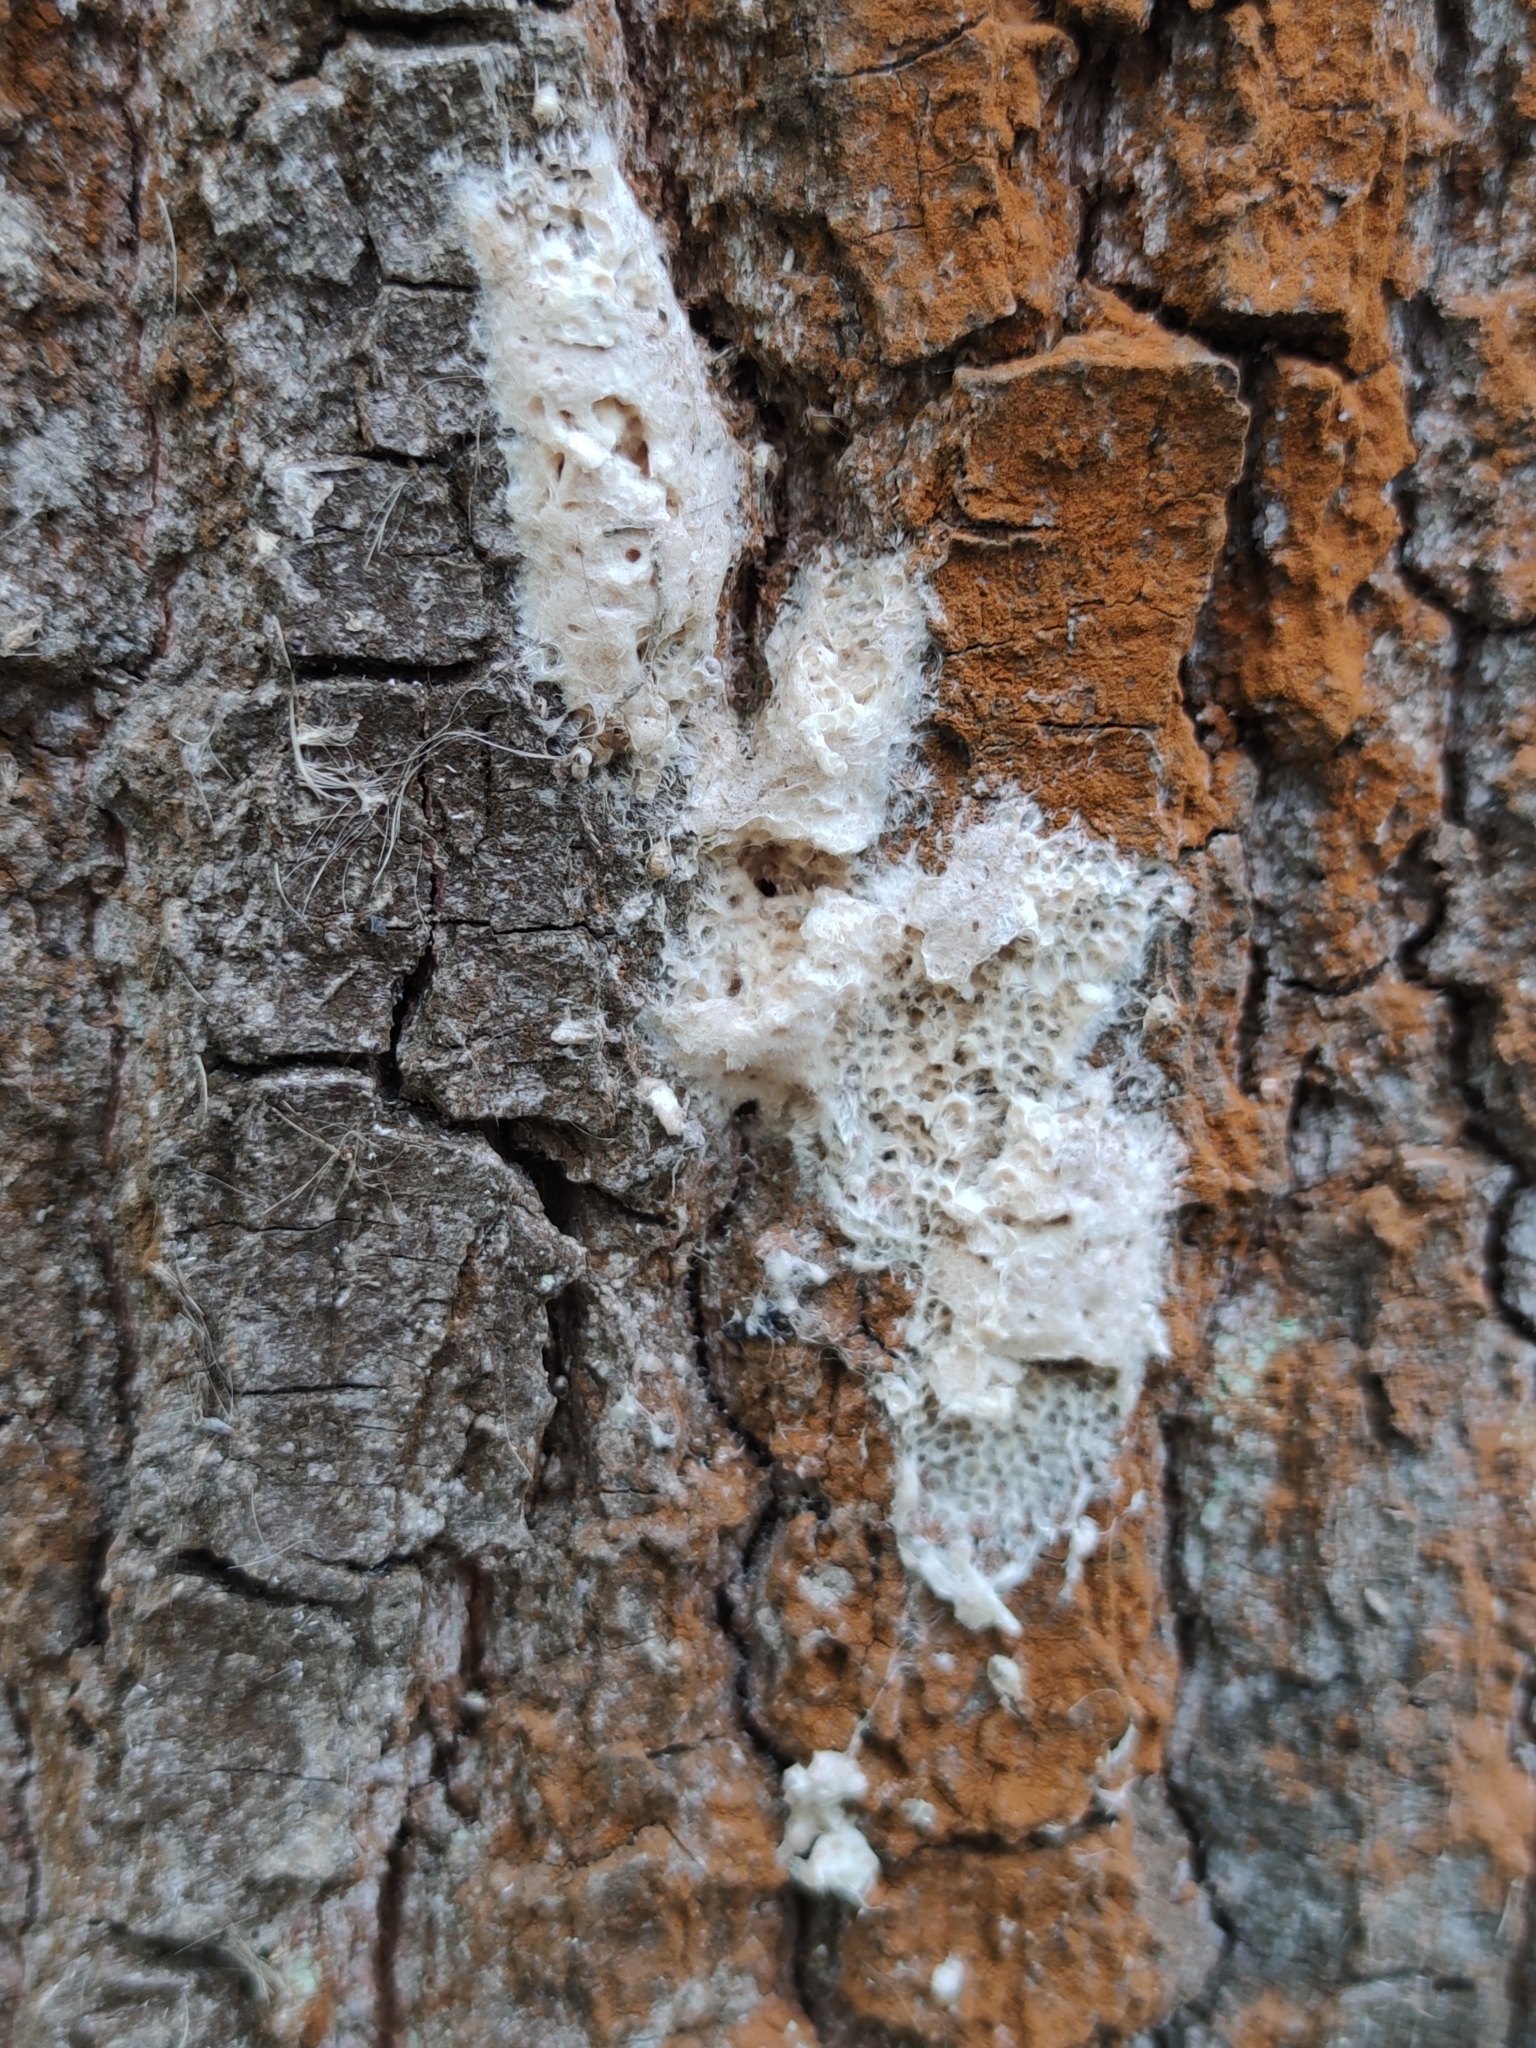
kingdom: Animalia
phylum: Arthropoda
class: Insecta
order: Lepidoptera
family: Erebidae
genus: Lymantria
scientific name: Lymantria dispar
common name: Gypsy moth
